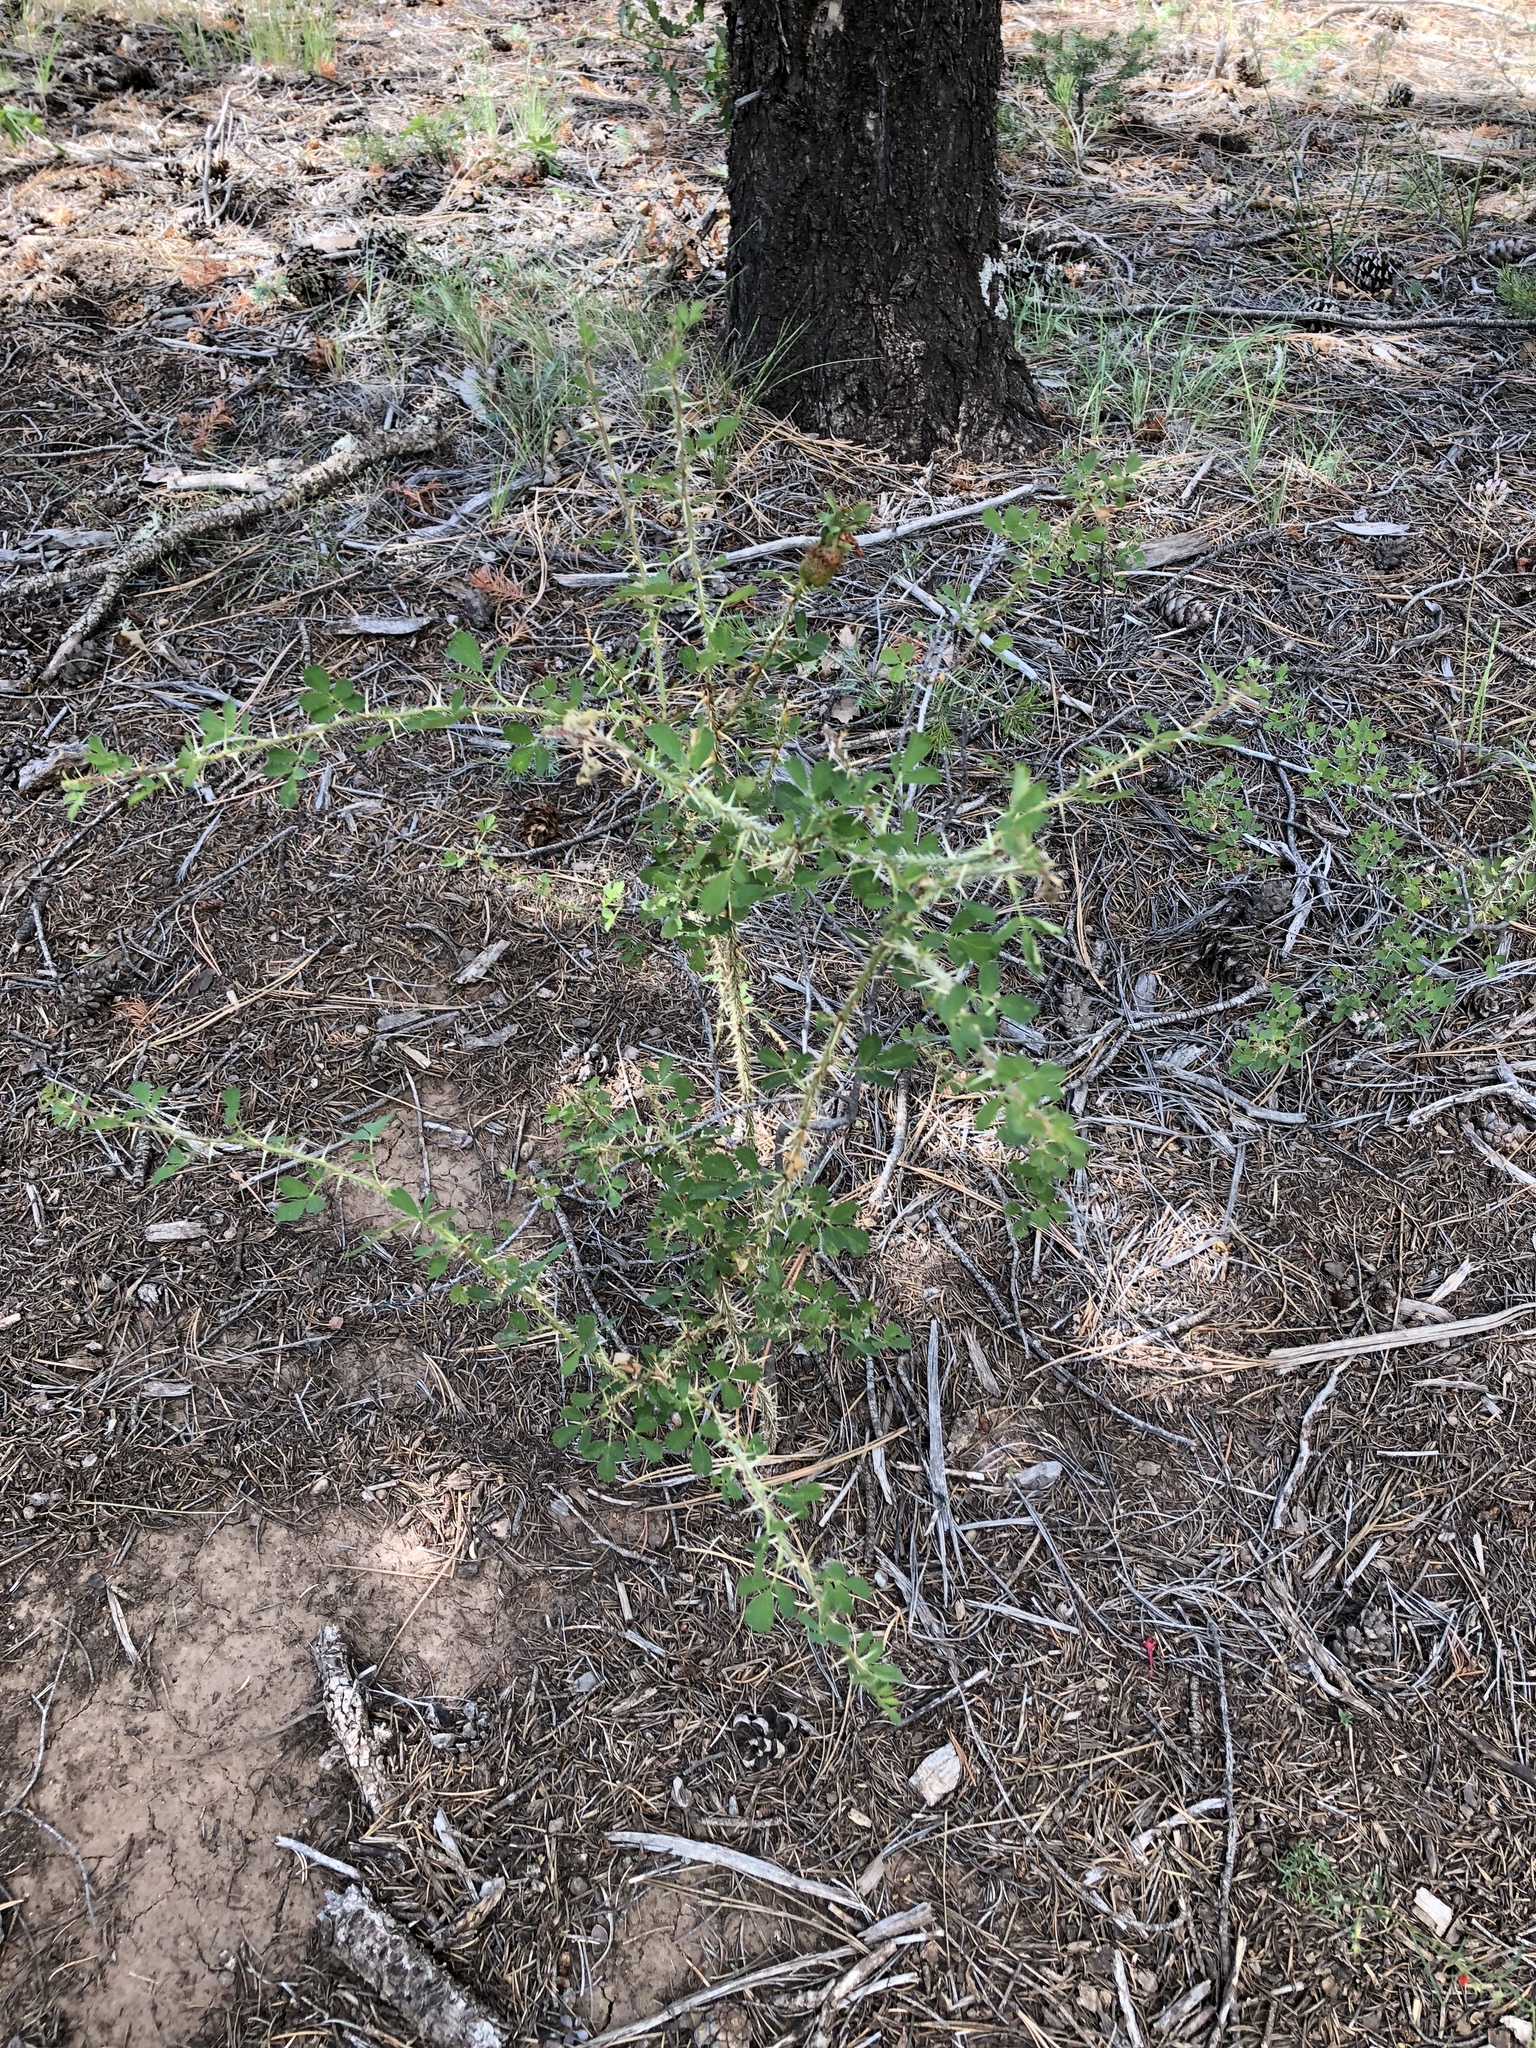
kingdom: Plantae
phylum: Tracheophyta
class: Magnoliopsida
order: Rosales
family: Rosaceae
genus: Rosa
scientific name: Rosa stellata
